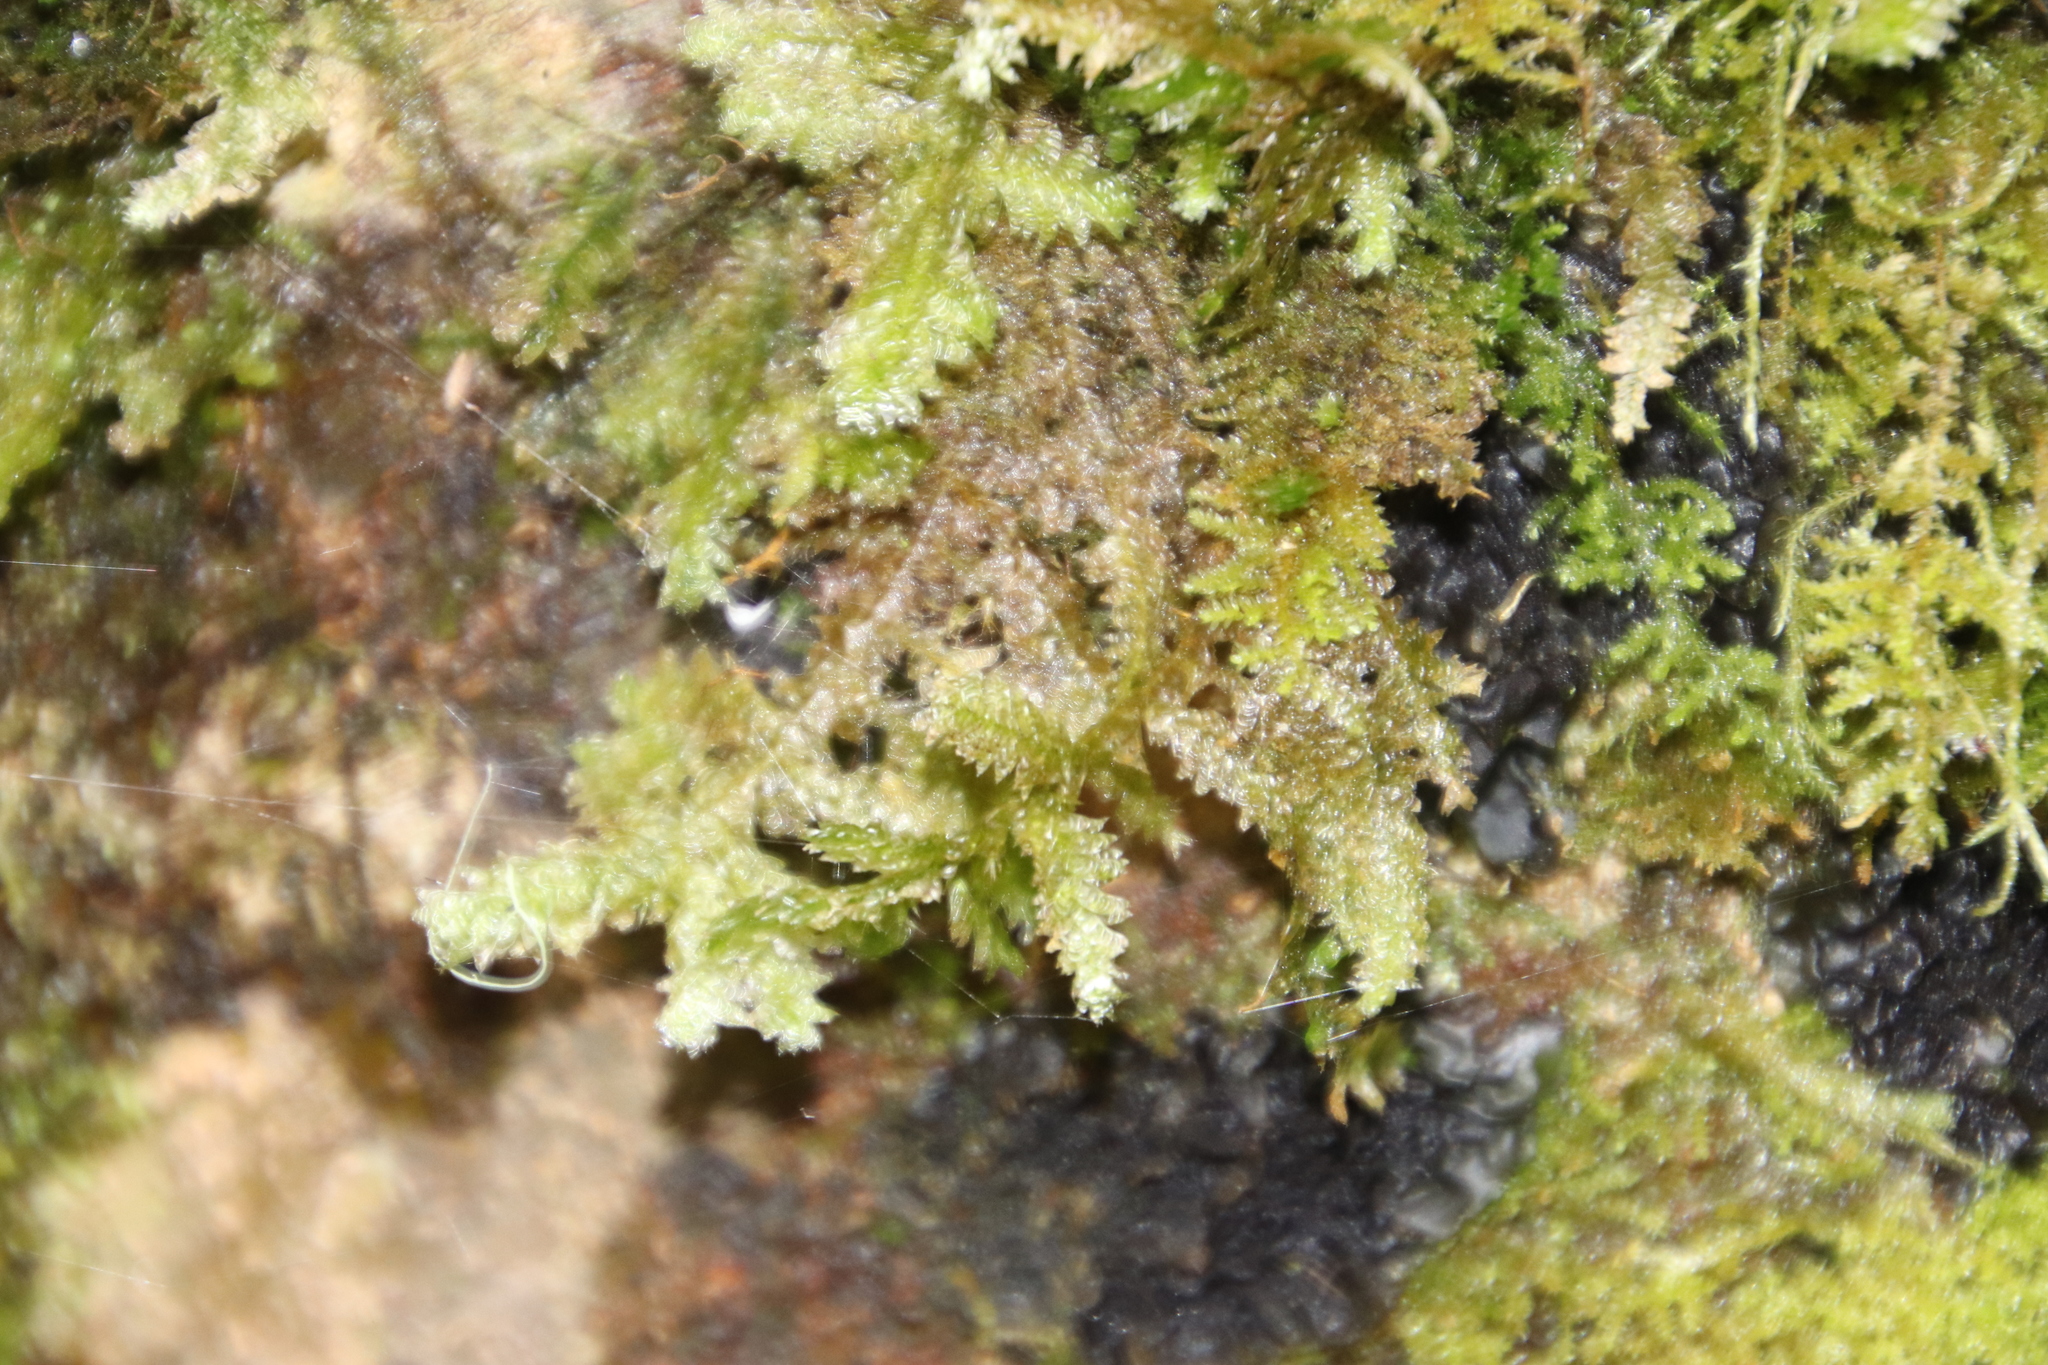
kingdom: Plantae
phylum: Bryophyta
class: Bryopsida
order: Hypnales
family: Neckeraceae
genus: Alleniella
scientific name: Alleniella ehrenbergii
